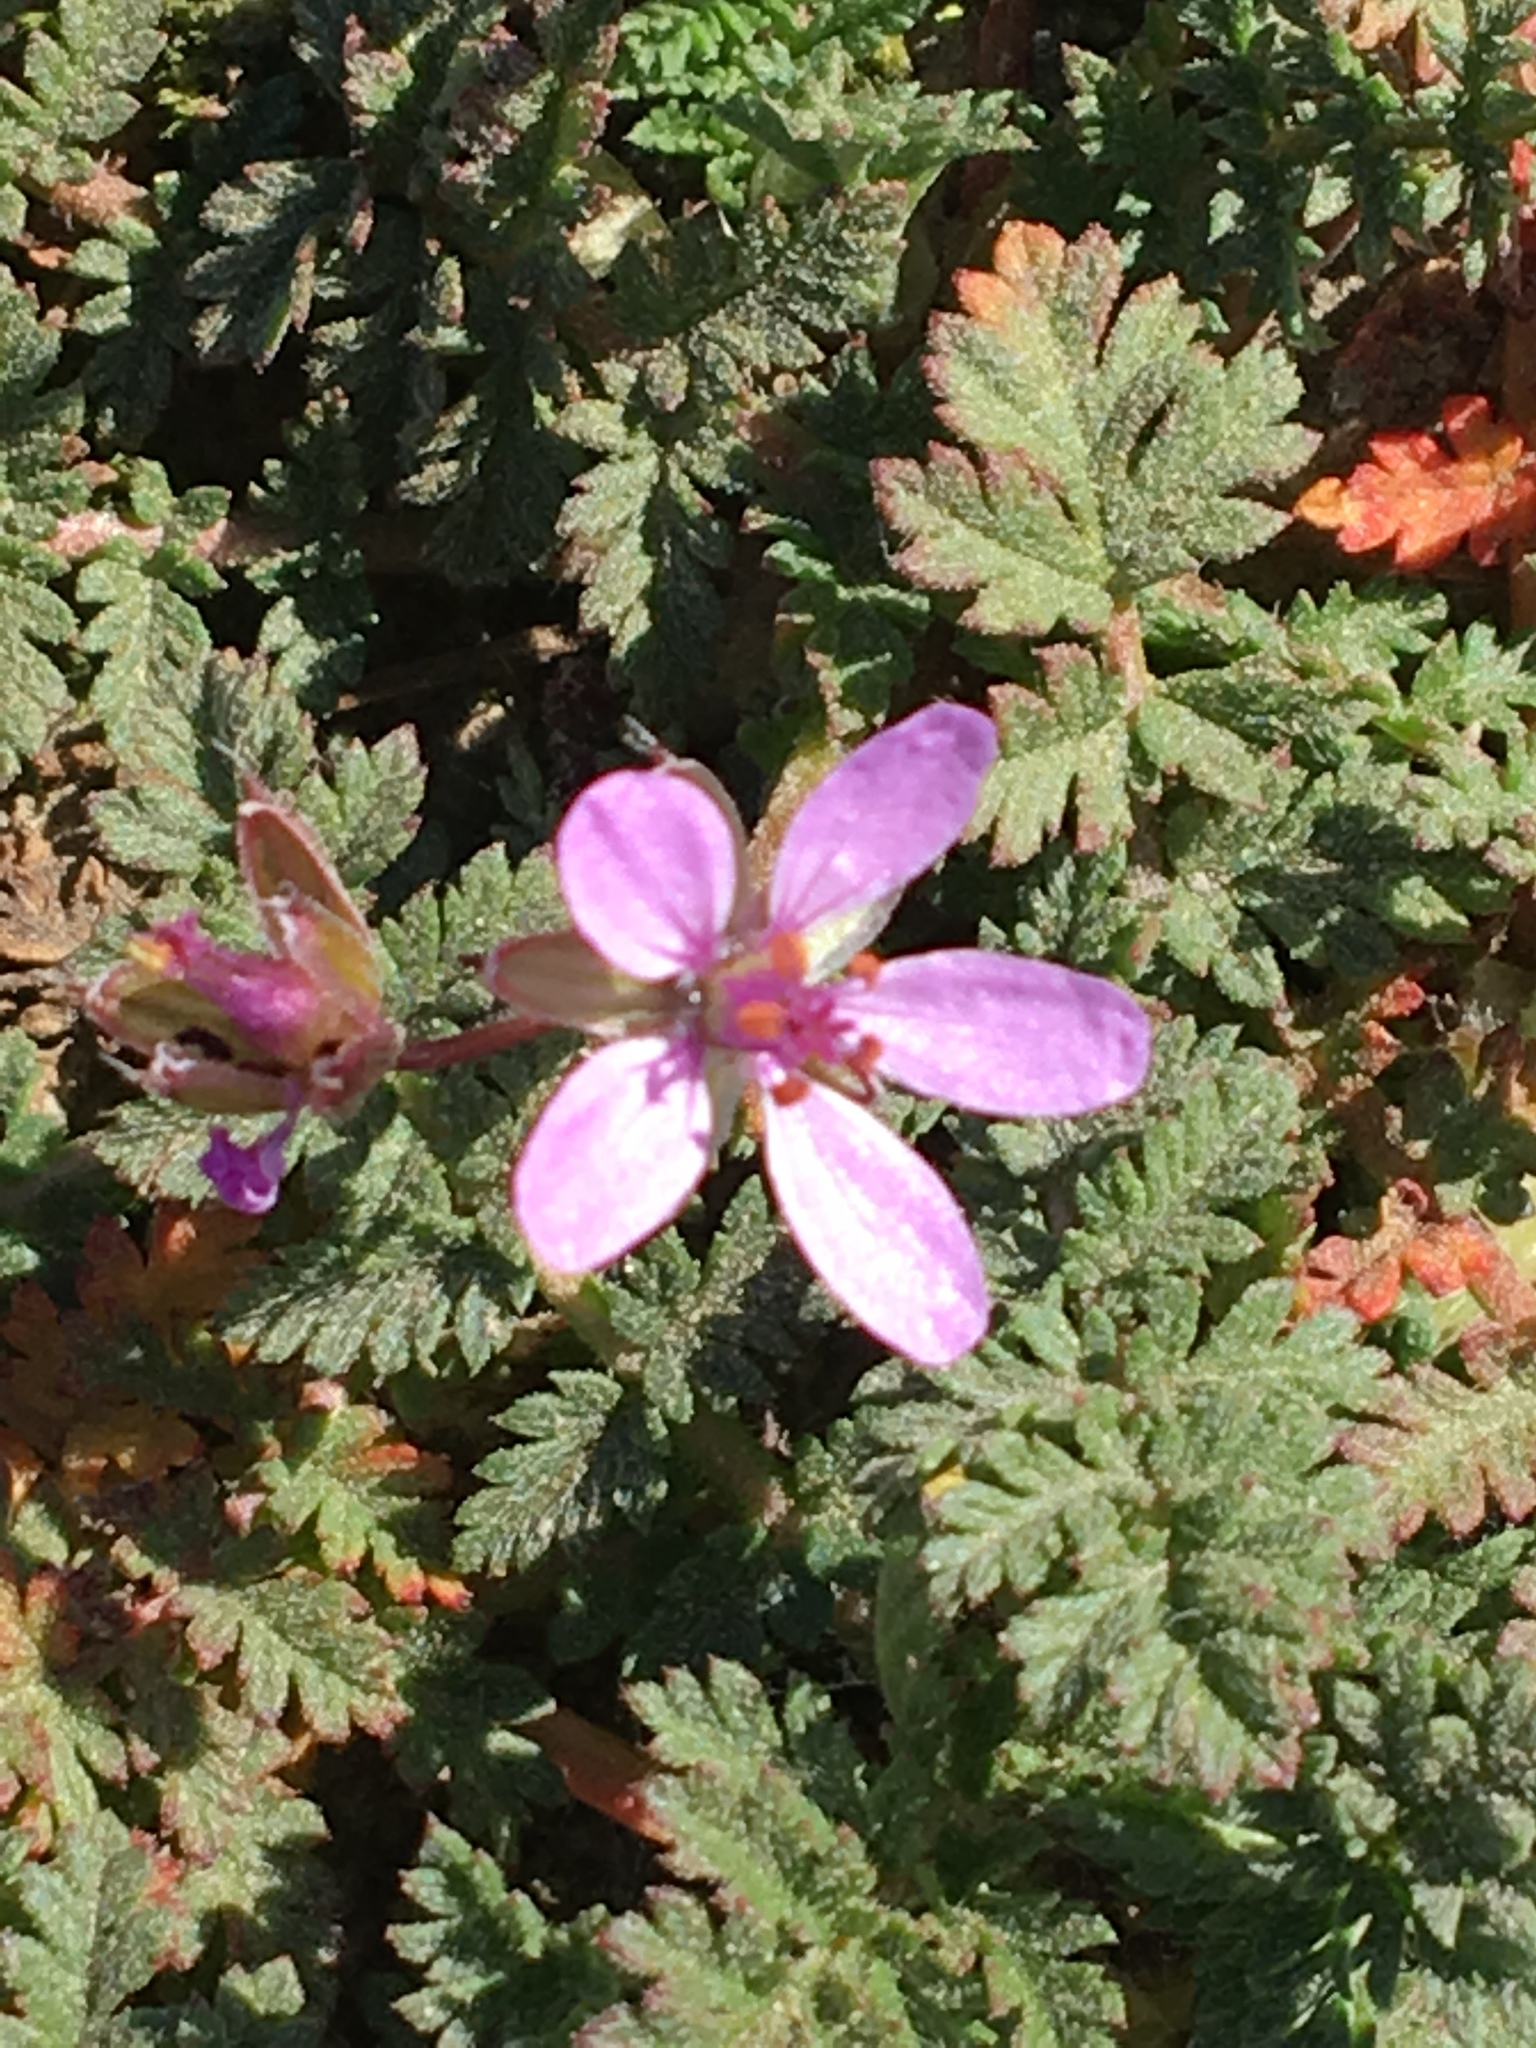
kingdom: Plantae
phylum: Tracheophyta
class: Magnoliopsida
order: Geraniales
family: Geraniaceae
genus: Erodium
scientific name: Erodium cicutarium
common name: Common stork's-bill
